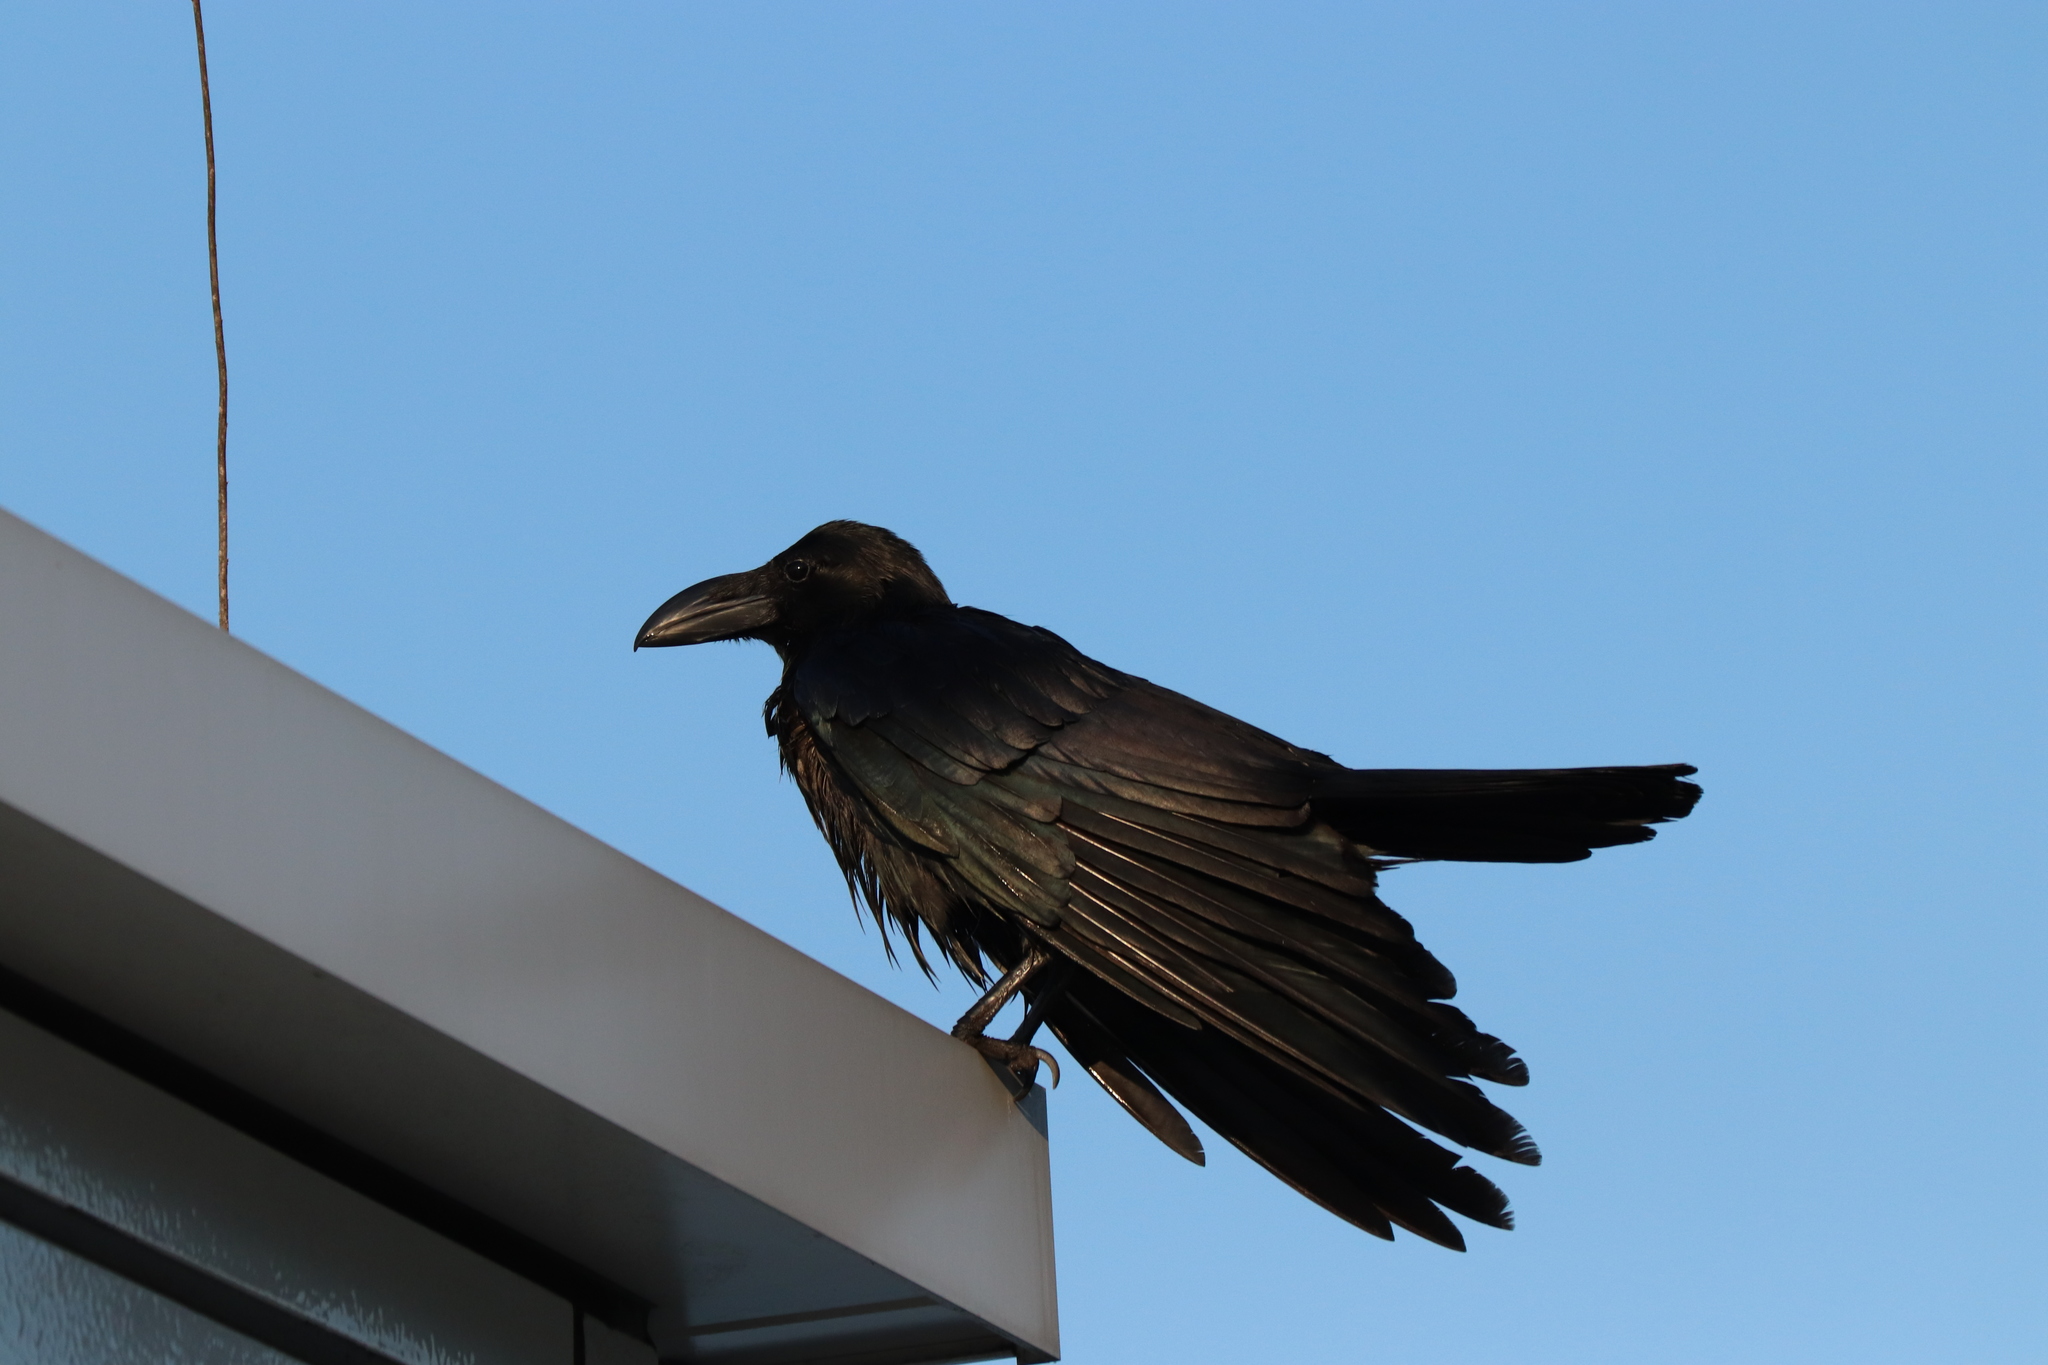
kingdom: Animalia
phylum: Chordata
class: Aves
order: Passeriformes
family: Corvidae
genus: Corvus
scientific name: Corvus macrorhynchos
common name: Large-billed crow
